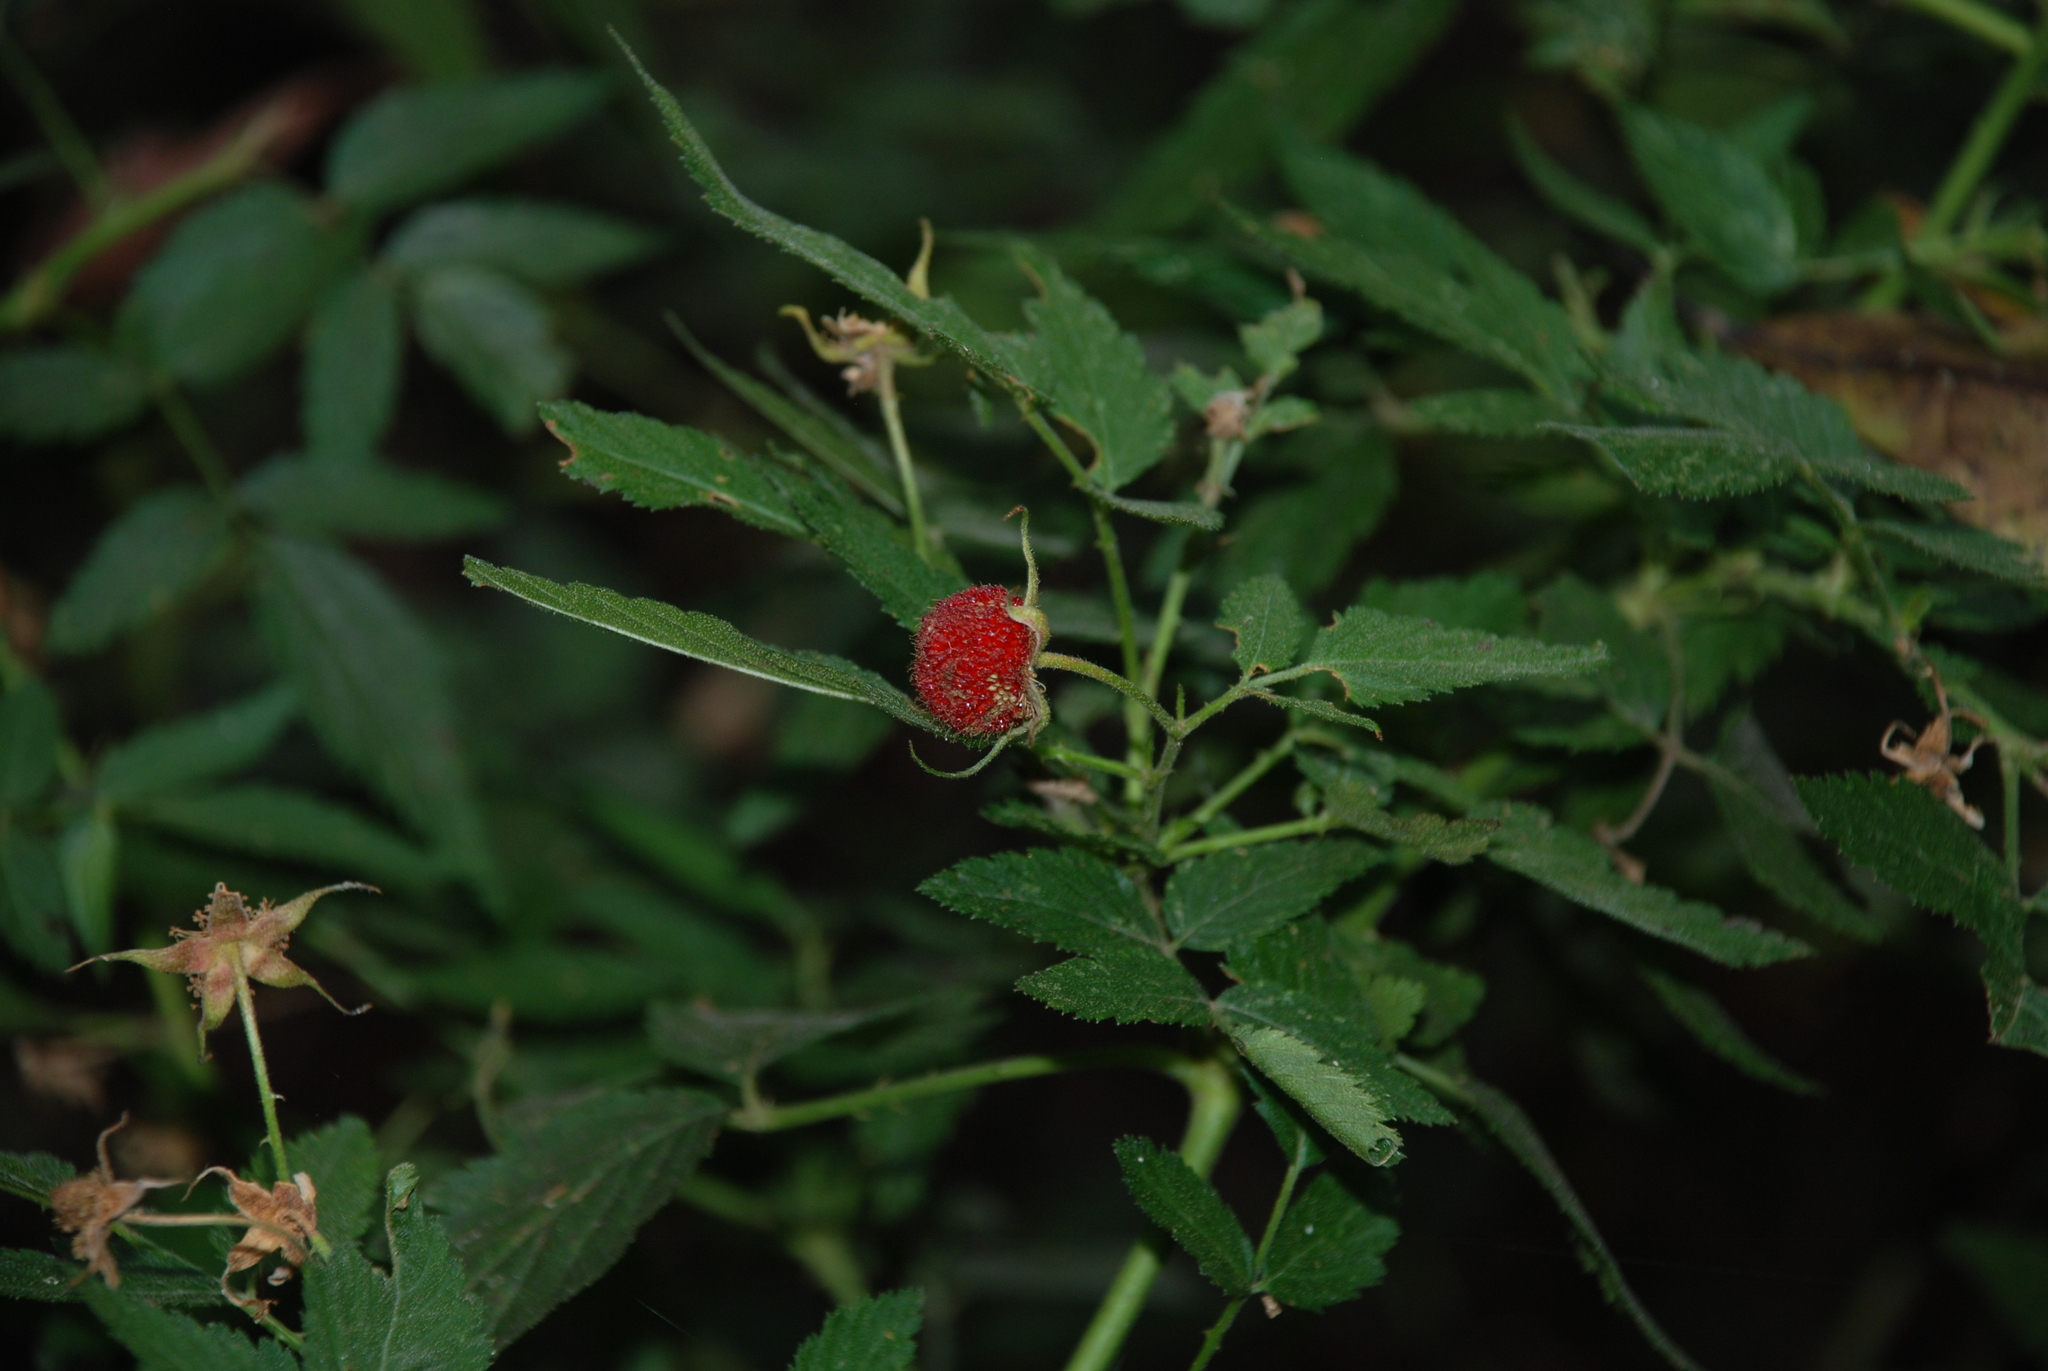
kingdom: Plantae
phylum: Tracheophyta
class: Magnoliopsida
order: Rosales
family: Rosaceae
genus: Rubus
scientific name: Rubus rosifolius
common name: Roseleaf raspberry
